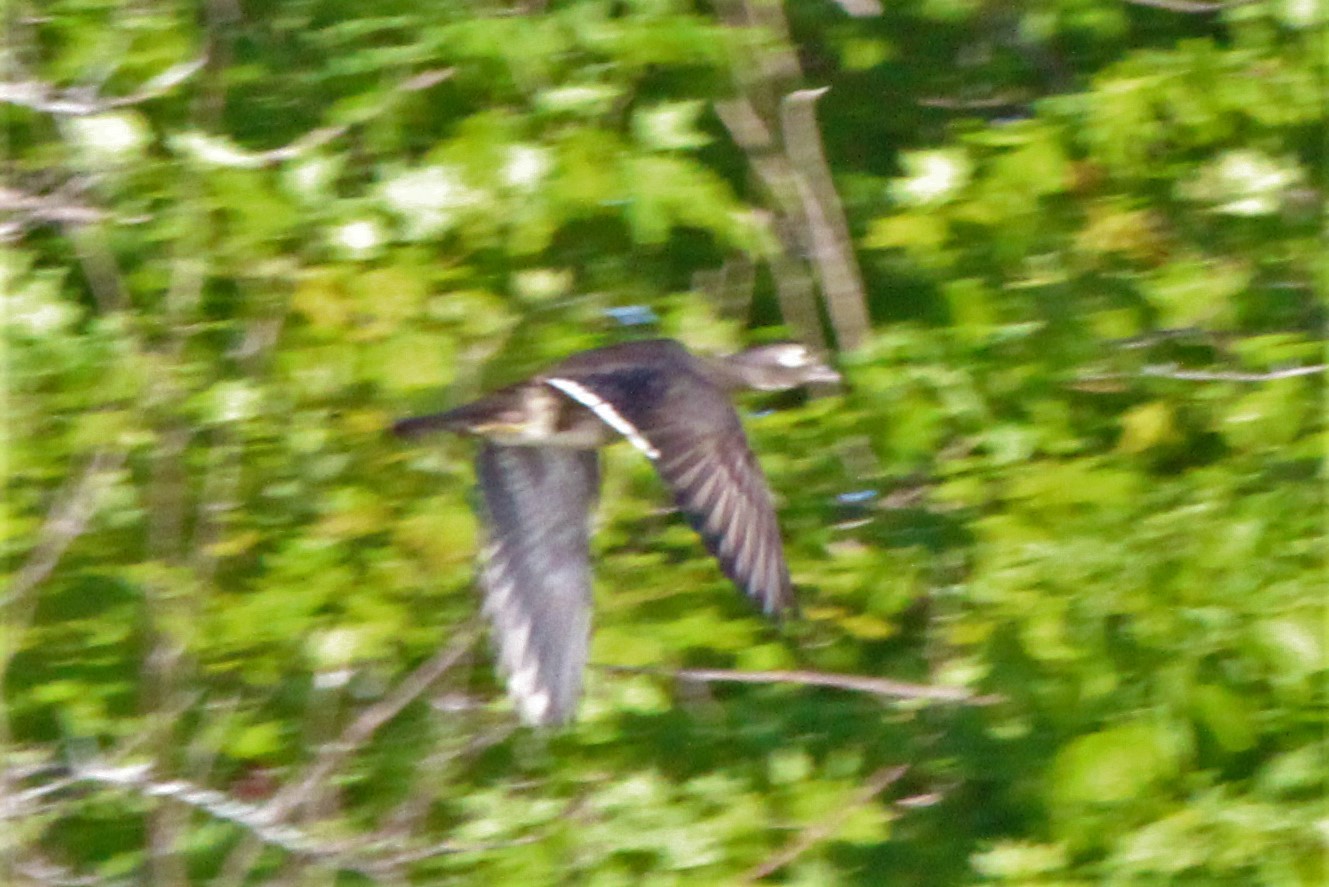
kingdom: Animalia
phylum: Chordata
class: Aves
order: Anseriformes
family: Anatidae
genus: Aix
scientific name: Aix sponsa
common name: Wood duck
